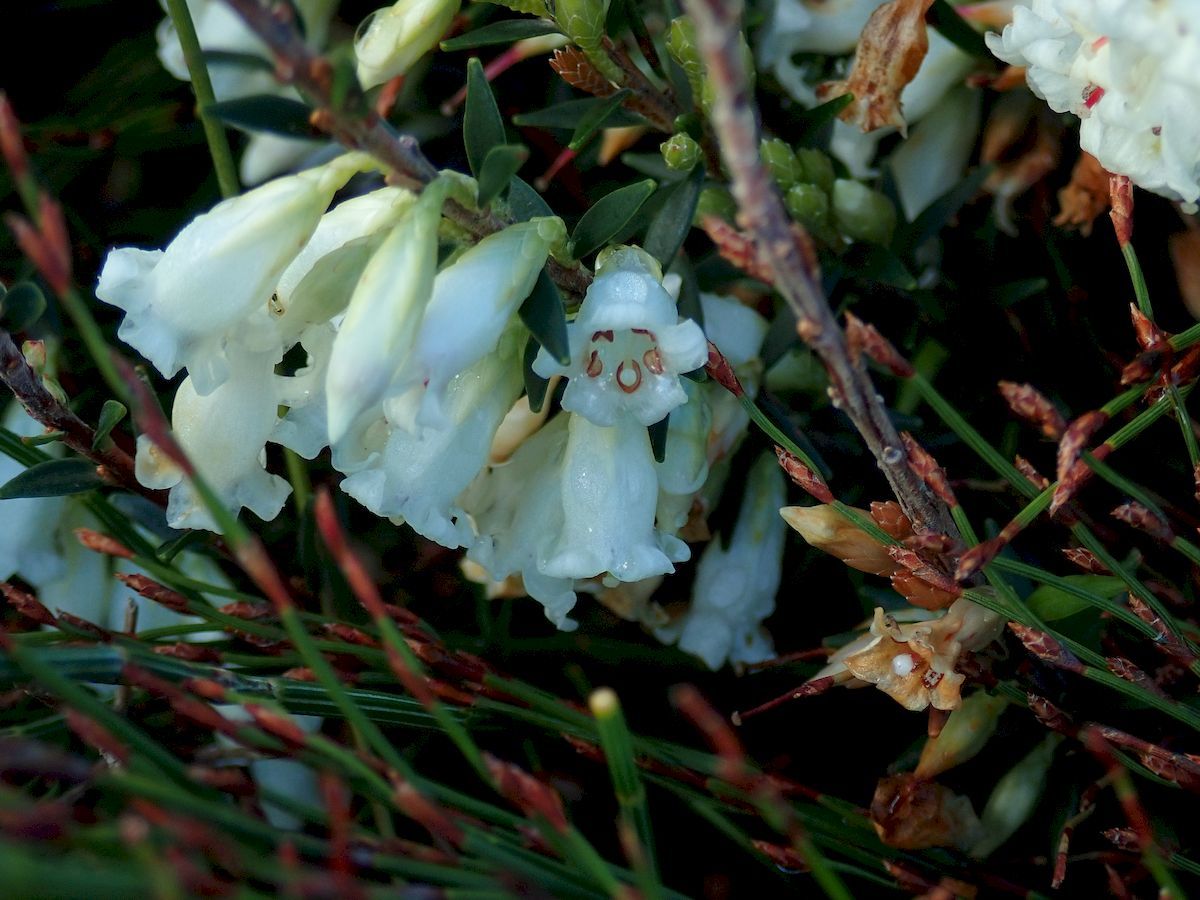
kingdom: Plantae
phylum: Tracheophyta
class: Magnoliopsida
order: Ericales
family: Ericaceae
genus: Epacris
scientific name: Epacris obtusifolia
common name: Blunt-leaf australian-heath
